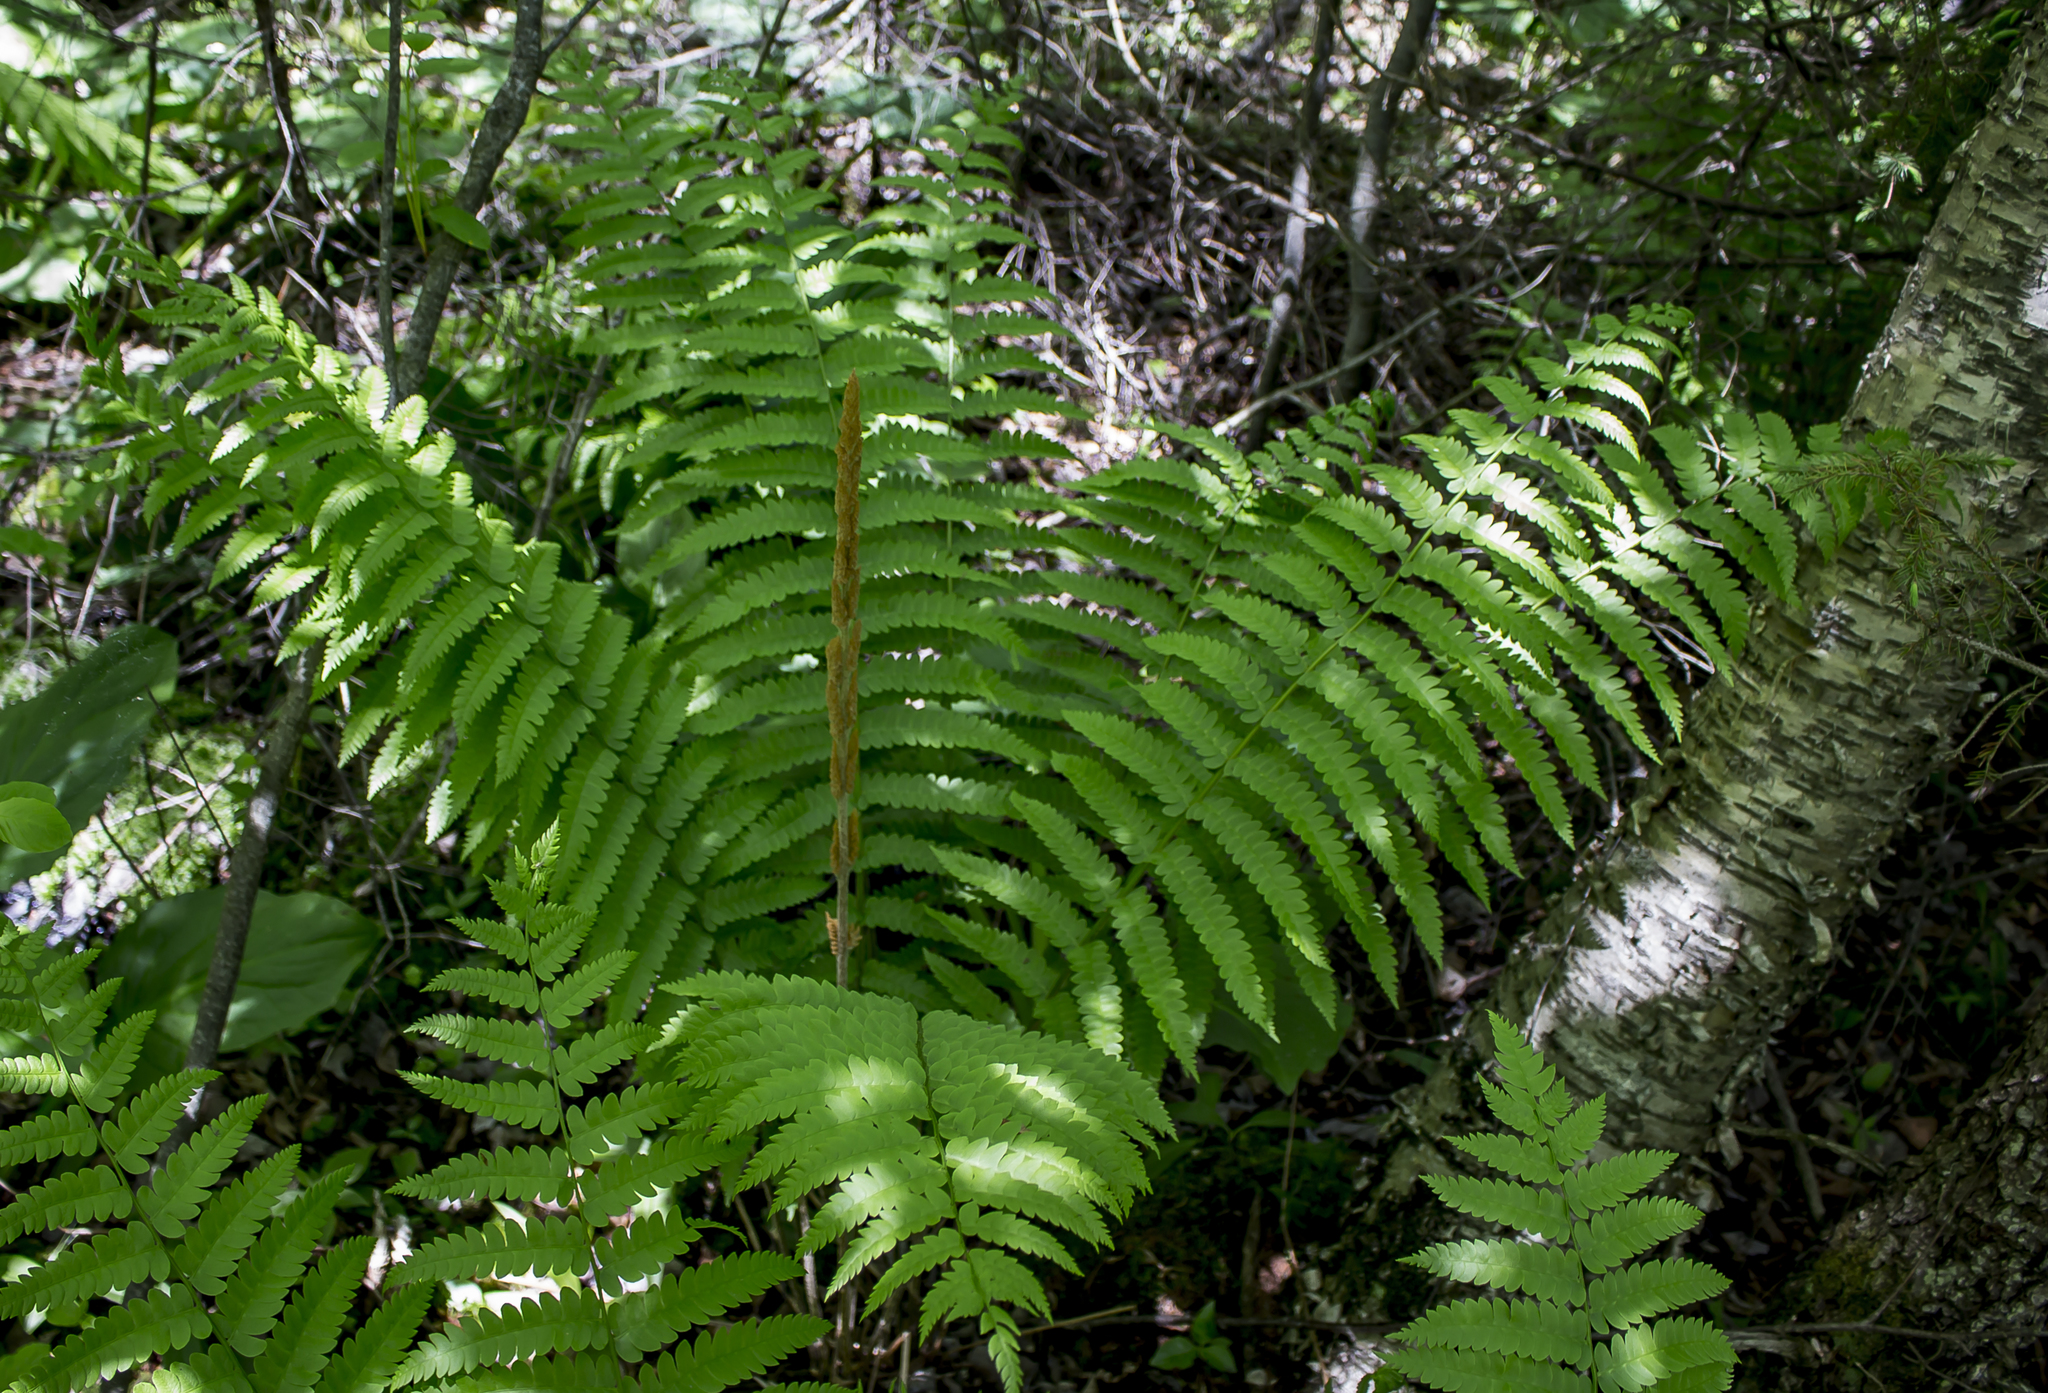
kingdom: Plantae
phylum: Tracheophyta
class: Polypodiopsida
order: Osmundales
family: Osmundaceae
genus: Osmundastrum
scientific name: Osmundastrum cinnamomeum
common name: Cinnamon fern
